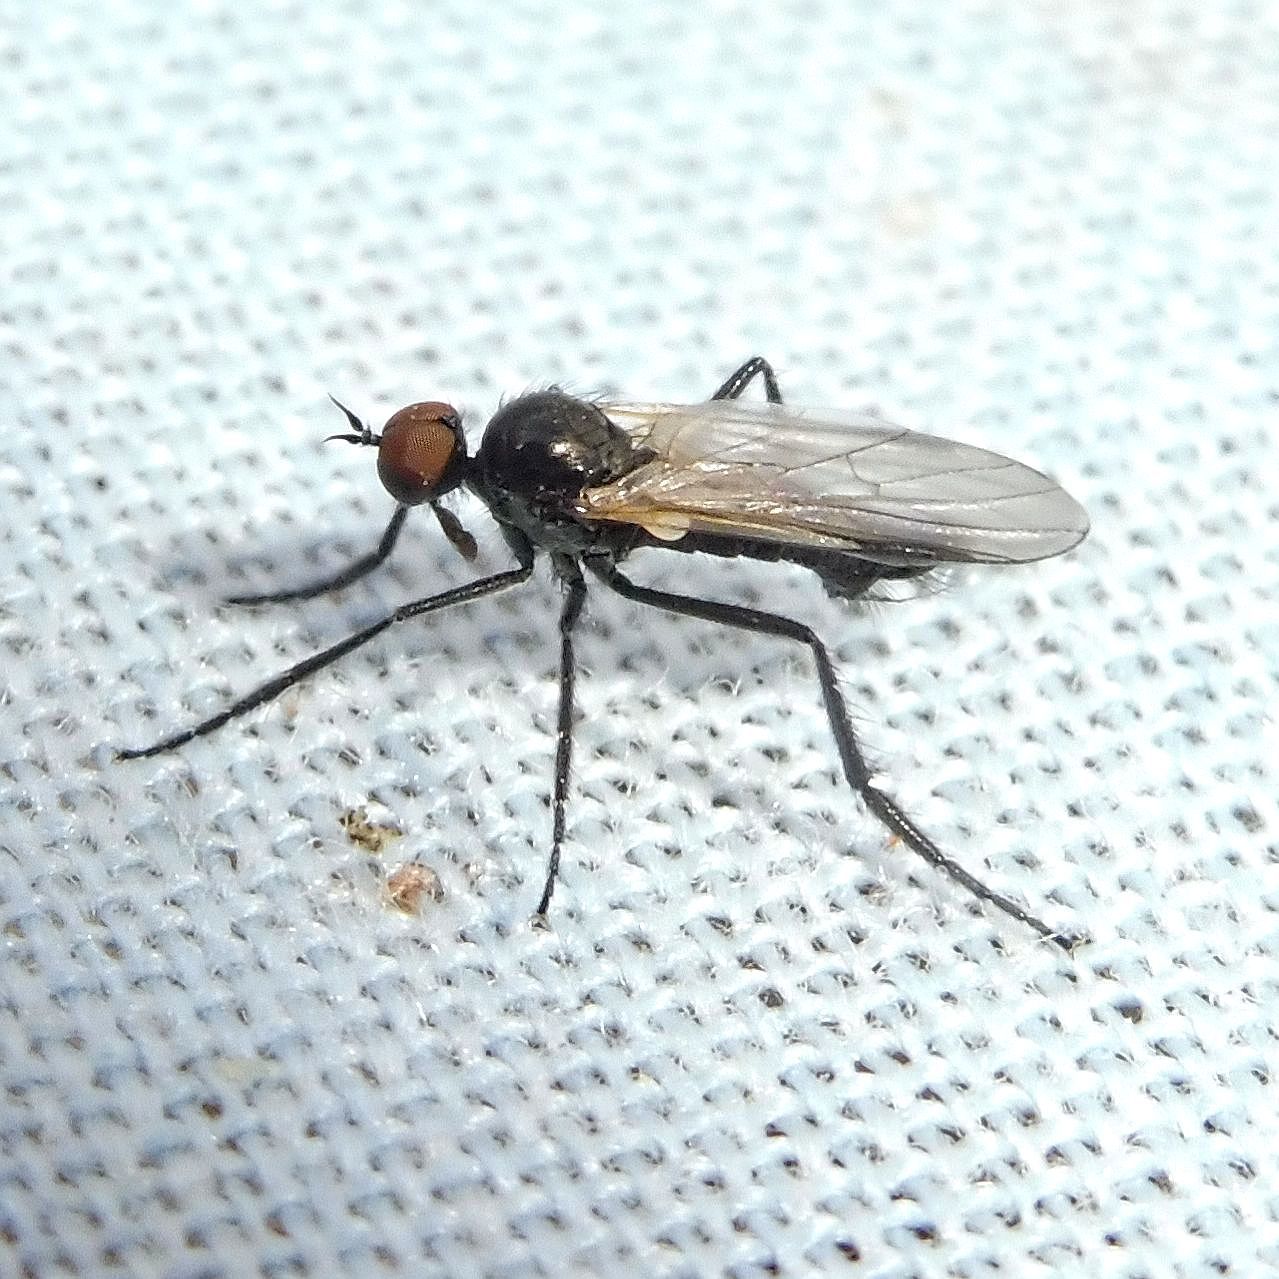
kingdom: Animalia
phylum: Arthropoda
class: Insecta
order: Diptera
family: Empididae
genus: Rhamphomyia
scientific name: Rhamphomyia tarsata
